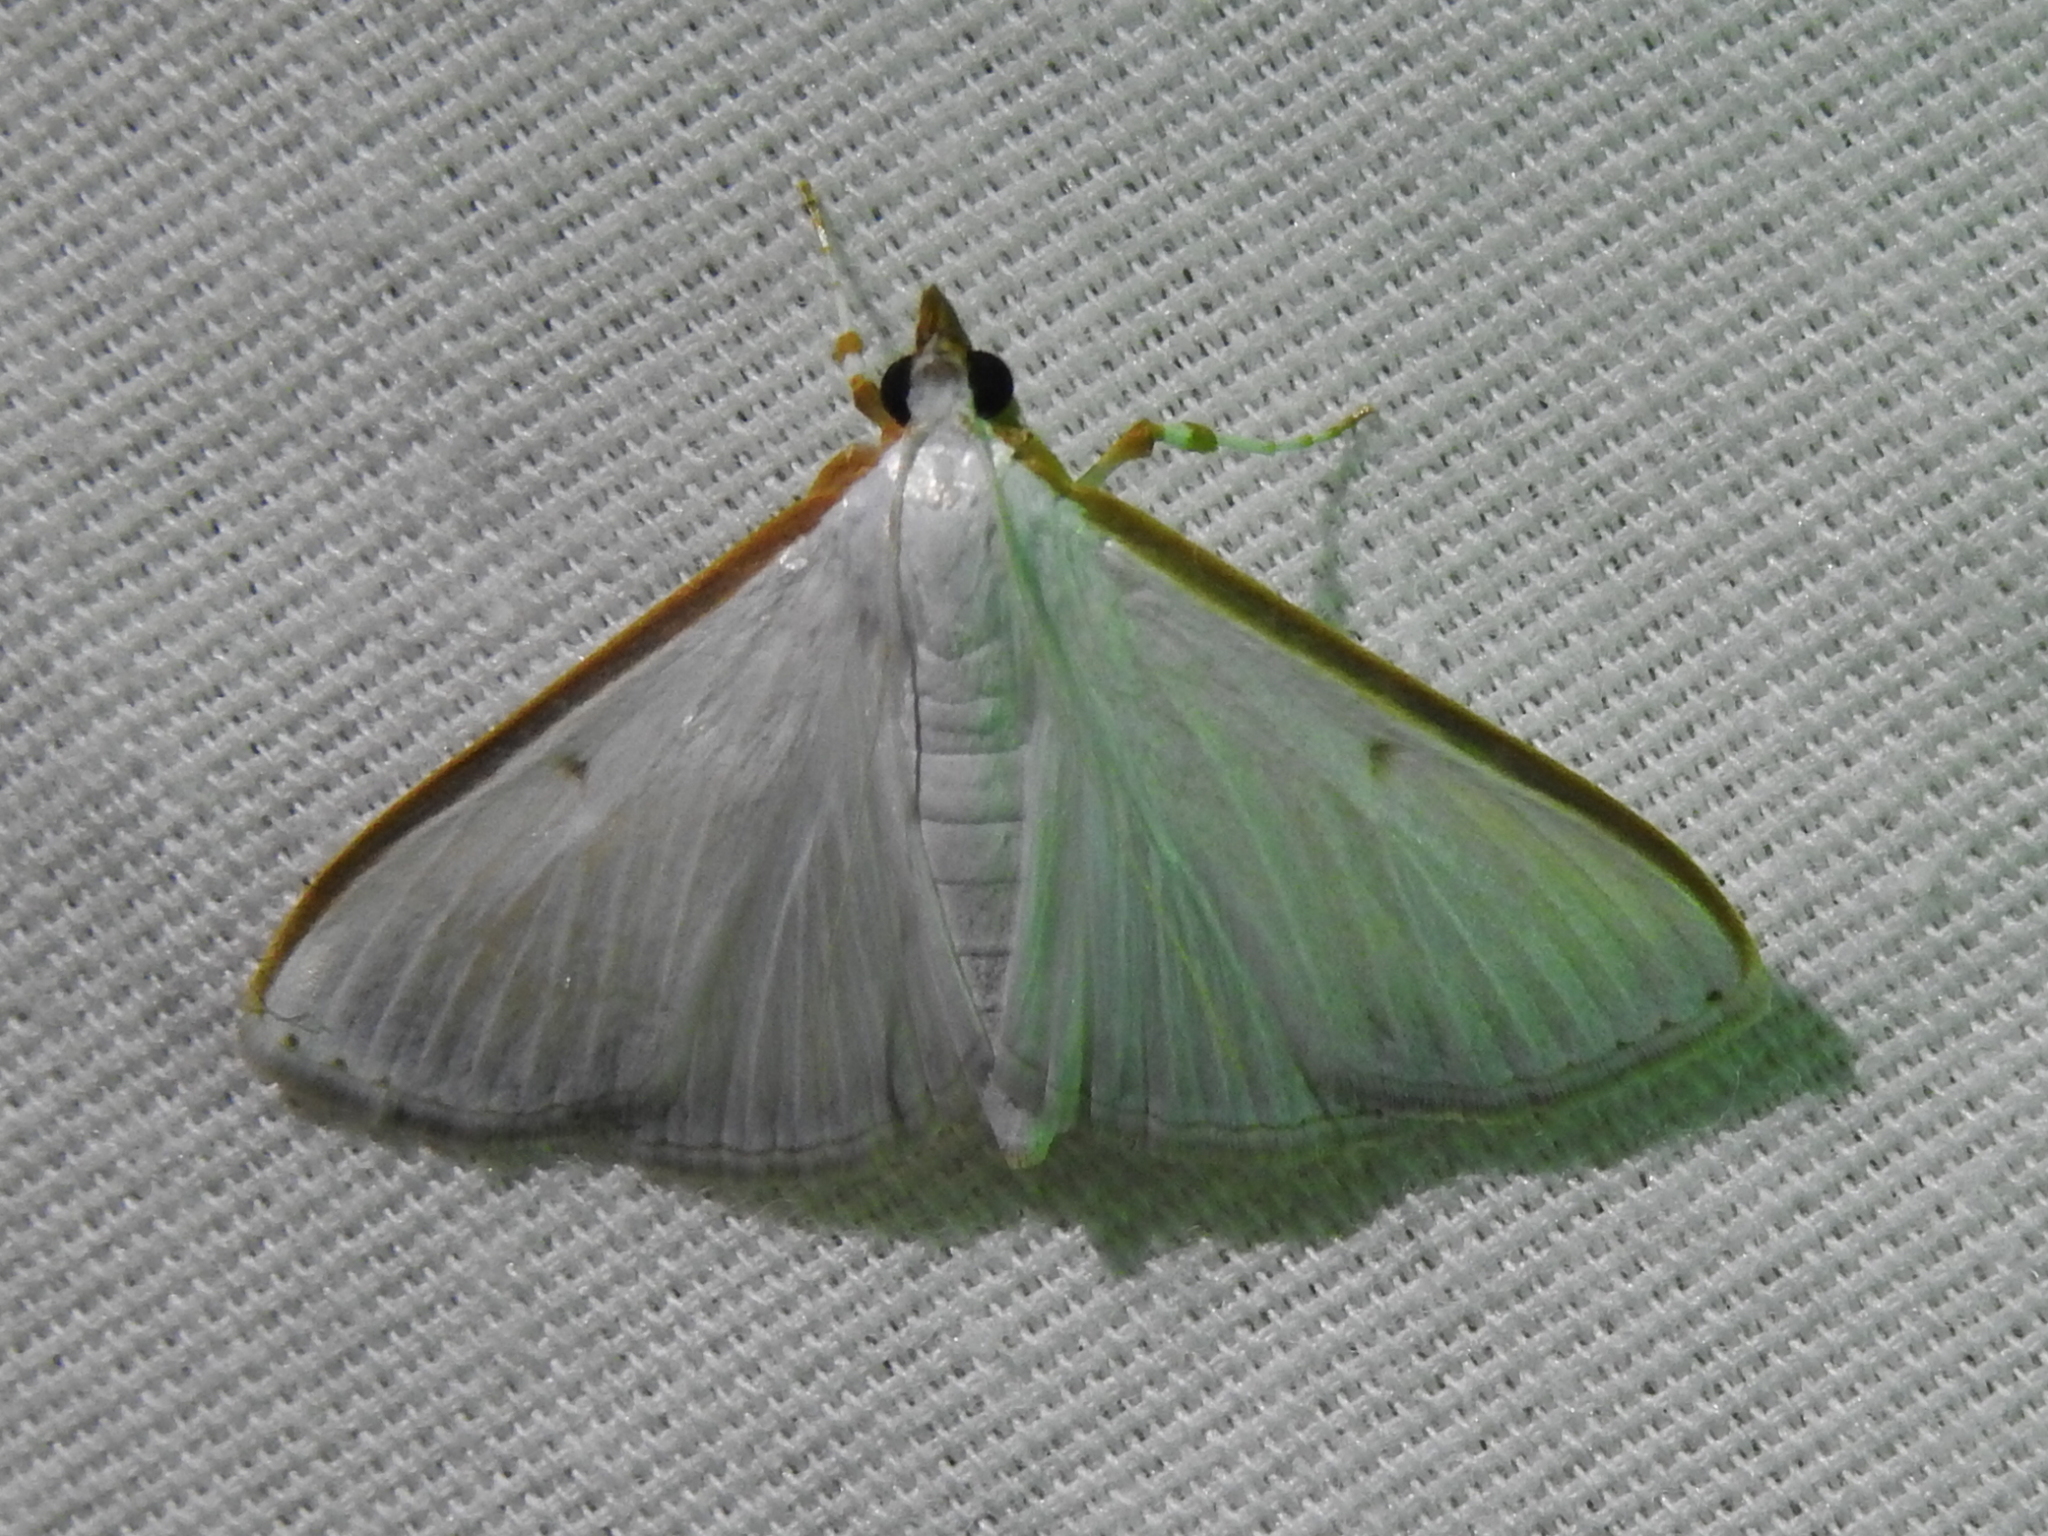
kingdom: Animalia
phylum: Arthropoda
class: Insecta
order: Lepidoptera
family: Crambidae
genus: Palpita
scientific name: Palpita quadristigmalis
